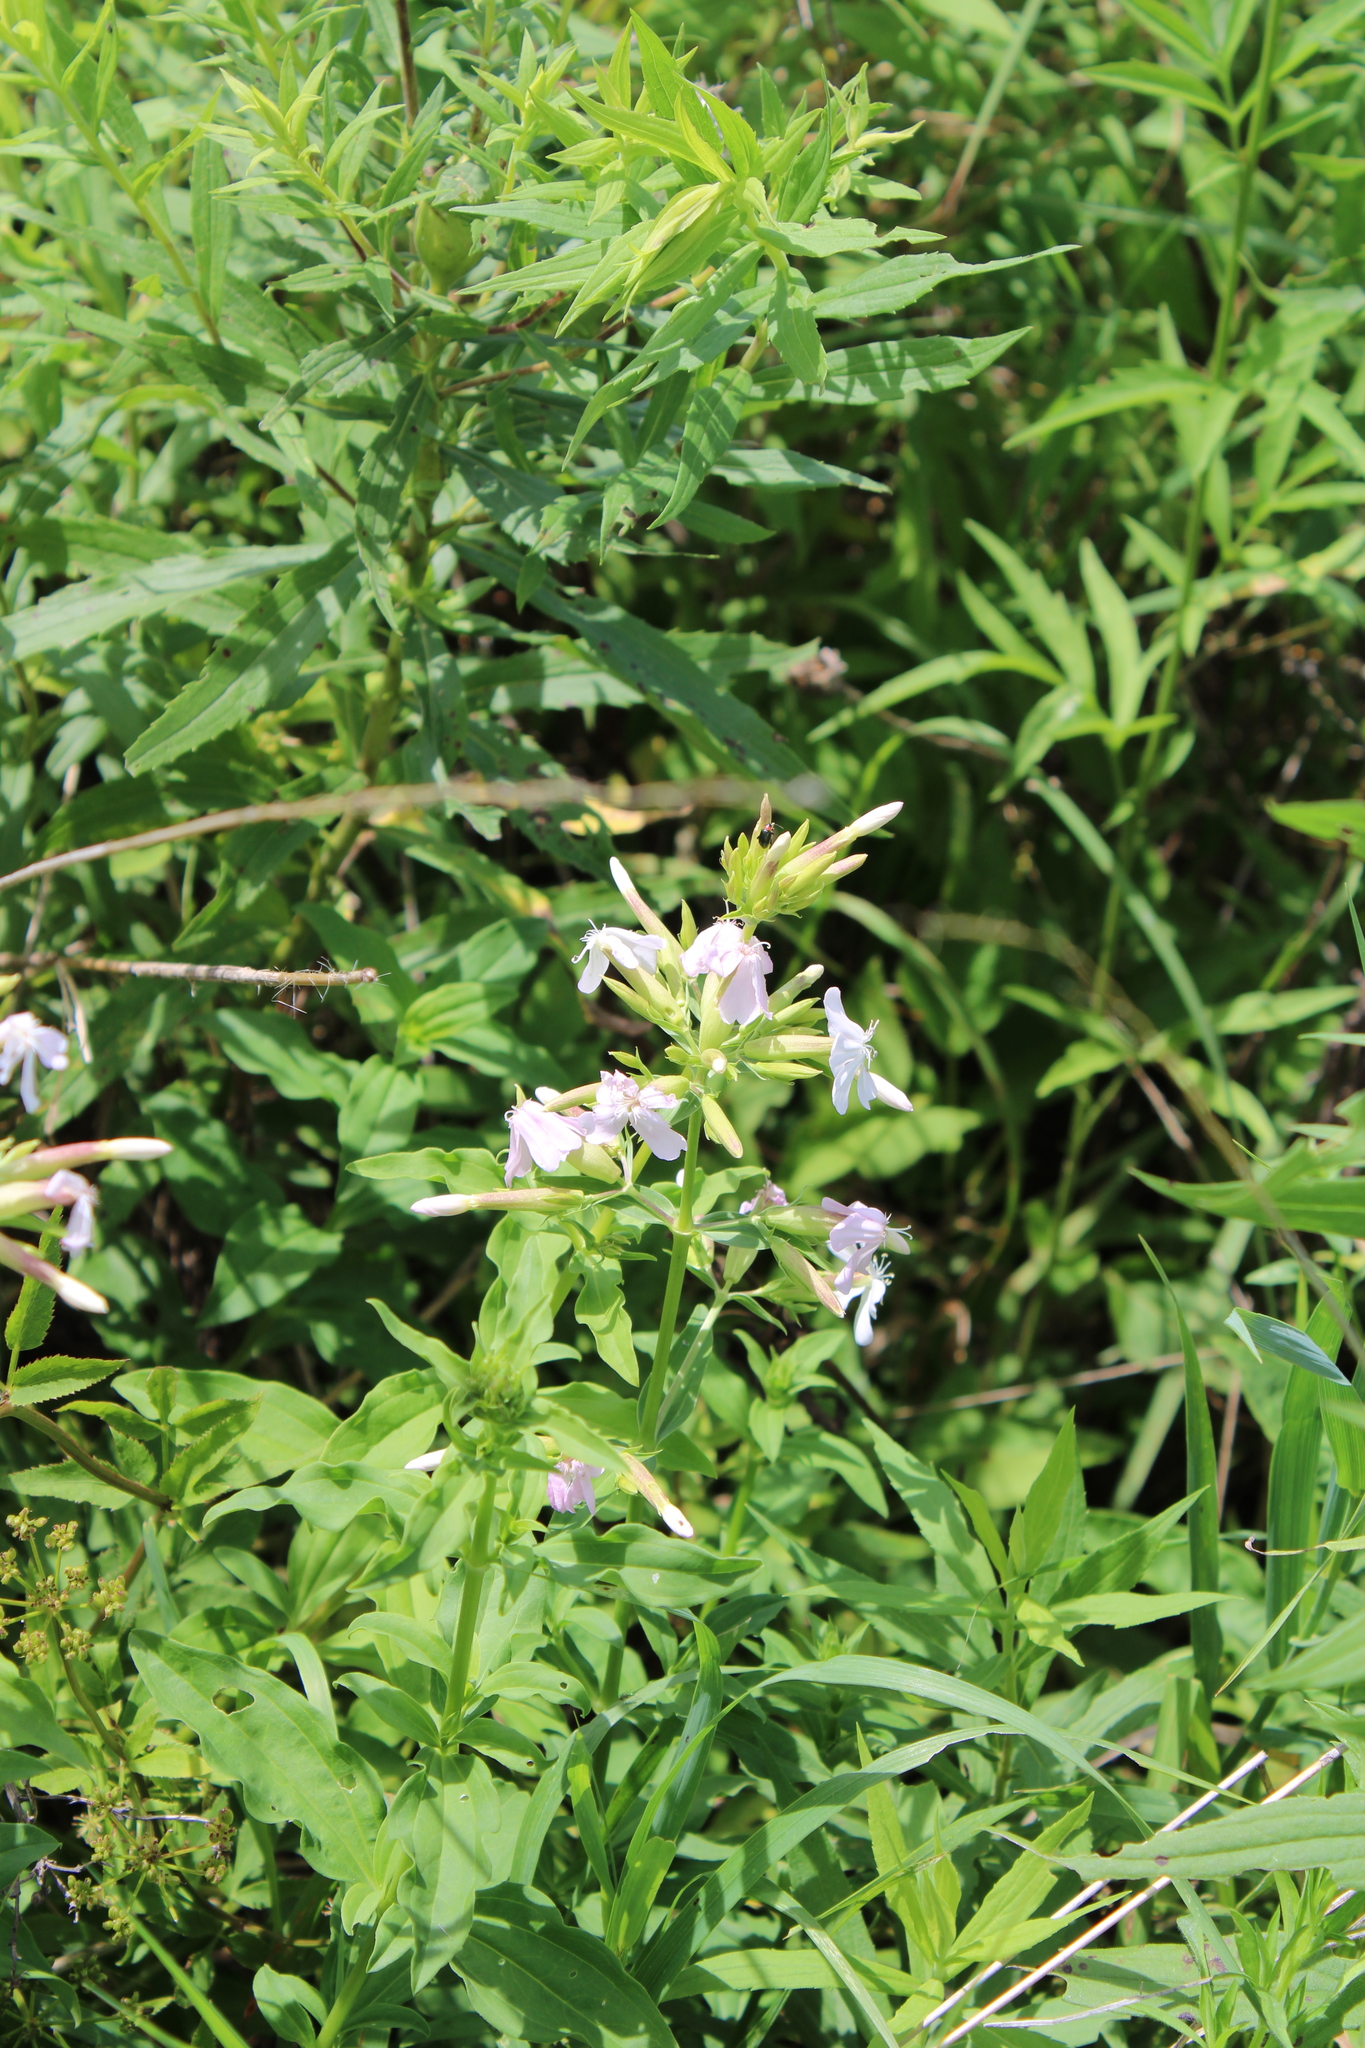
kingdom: Plantae
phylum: Tracheophyta
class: Magnoliopsida
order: Caryophyllales
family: Caryophyllaceae
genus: Saponaria
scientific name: Saponaria officinalis
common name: Soapwort
